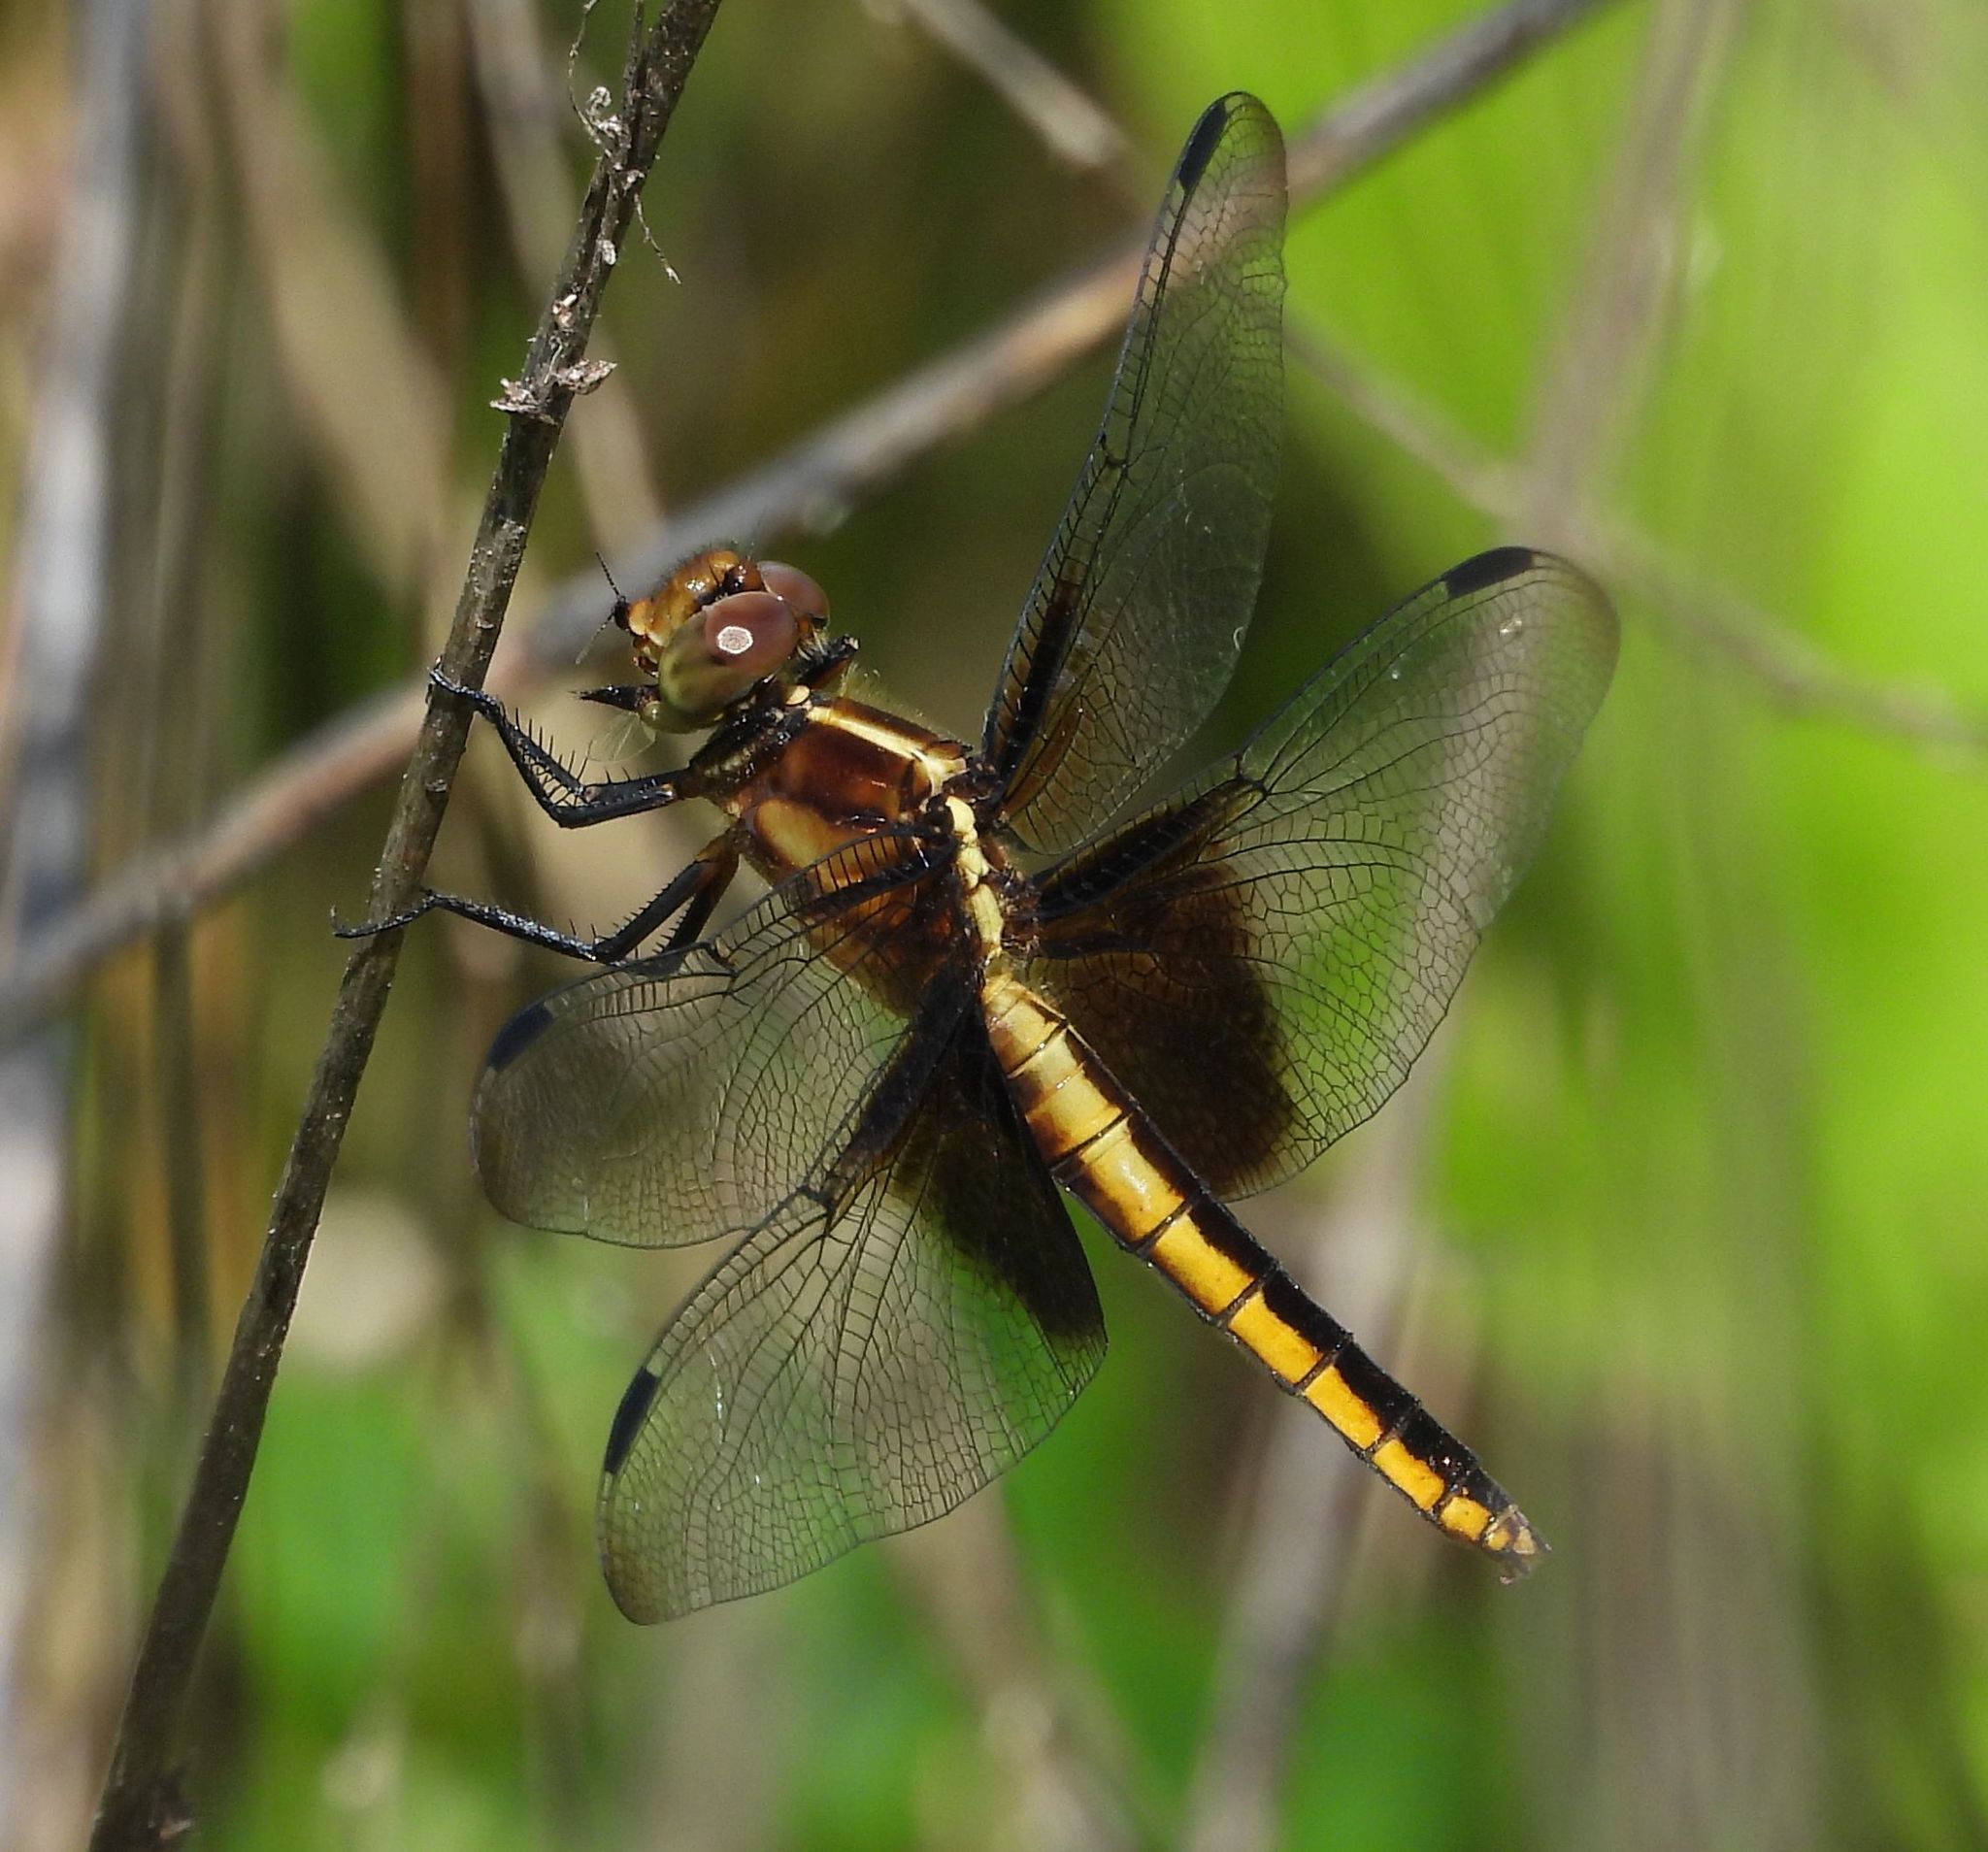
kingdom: Animalia
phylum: Arthropoda
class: Insecta
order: Odonata
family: Libellulidae
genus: Libellula
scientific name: Libellula luctuosa
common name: Widow skimmer
